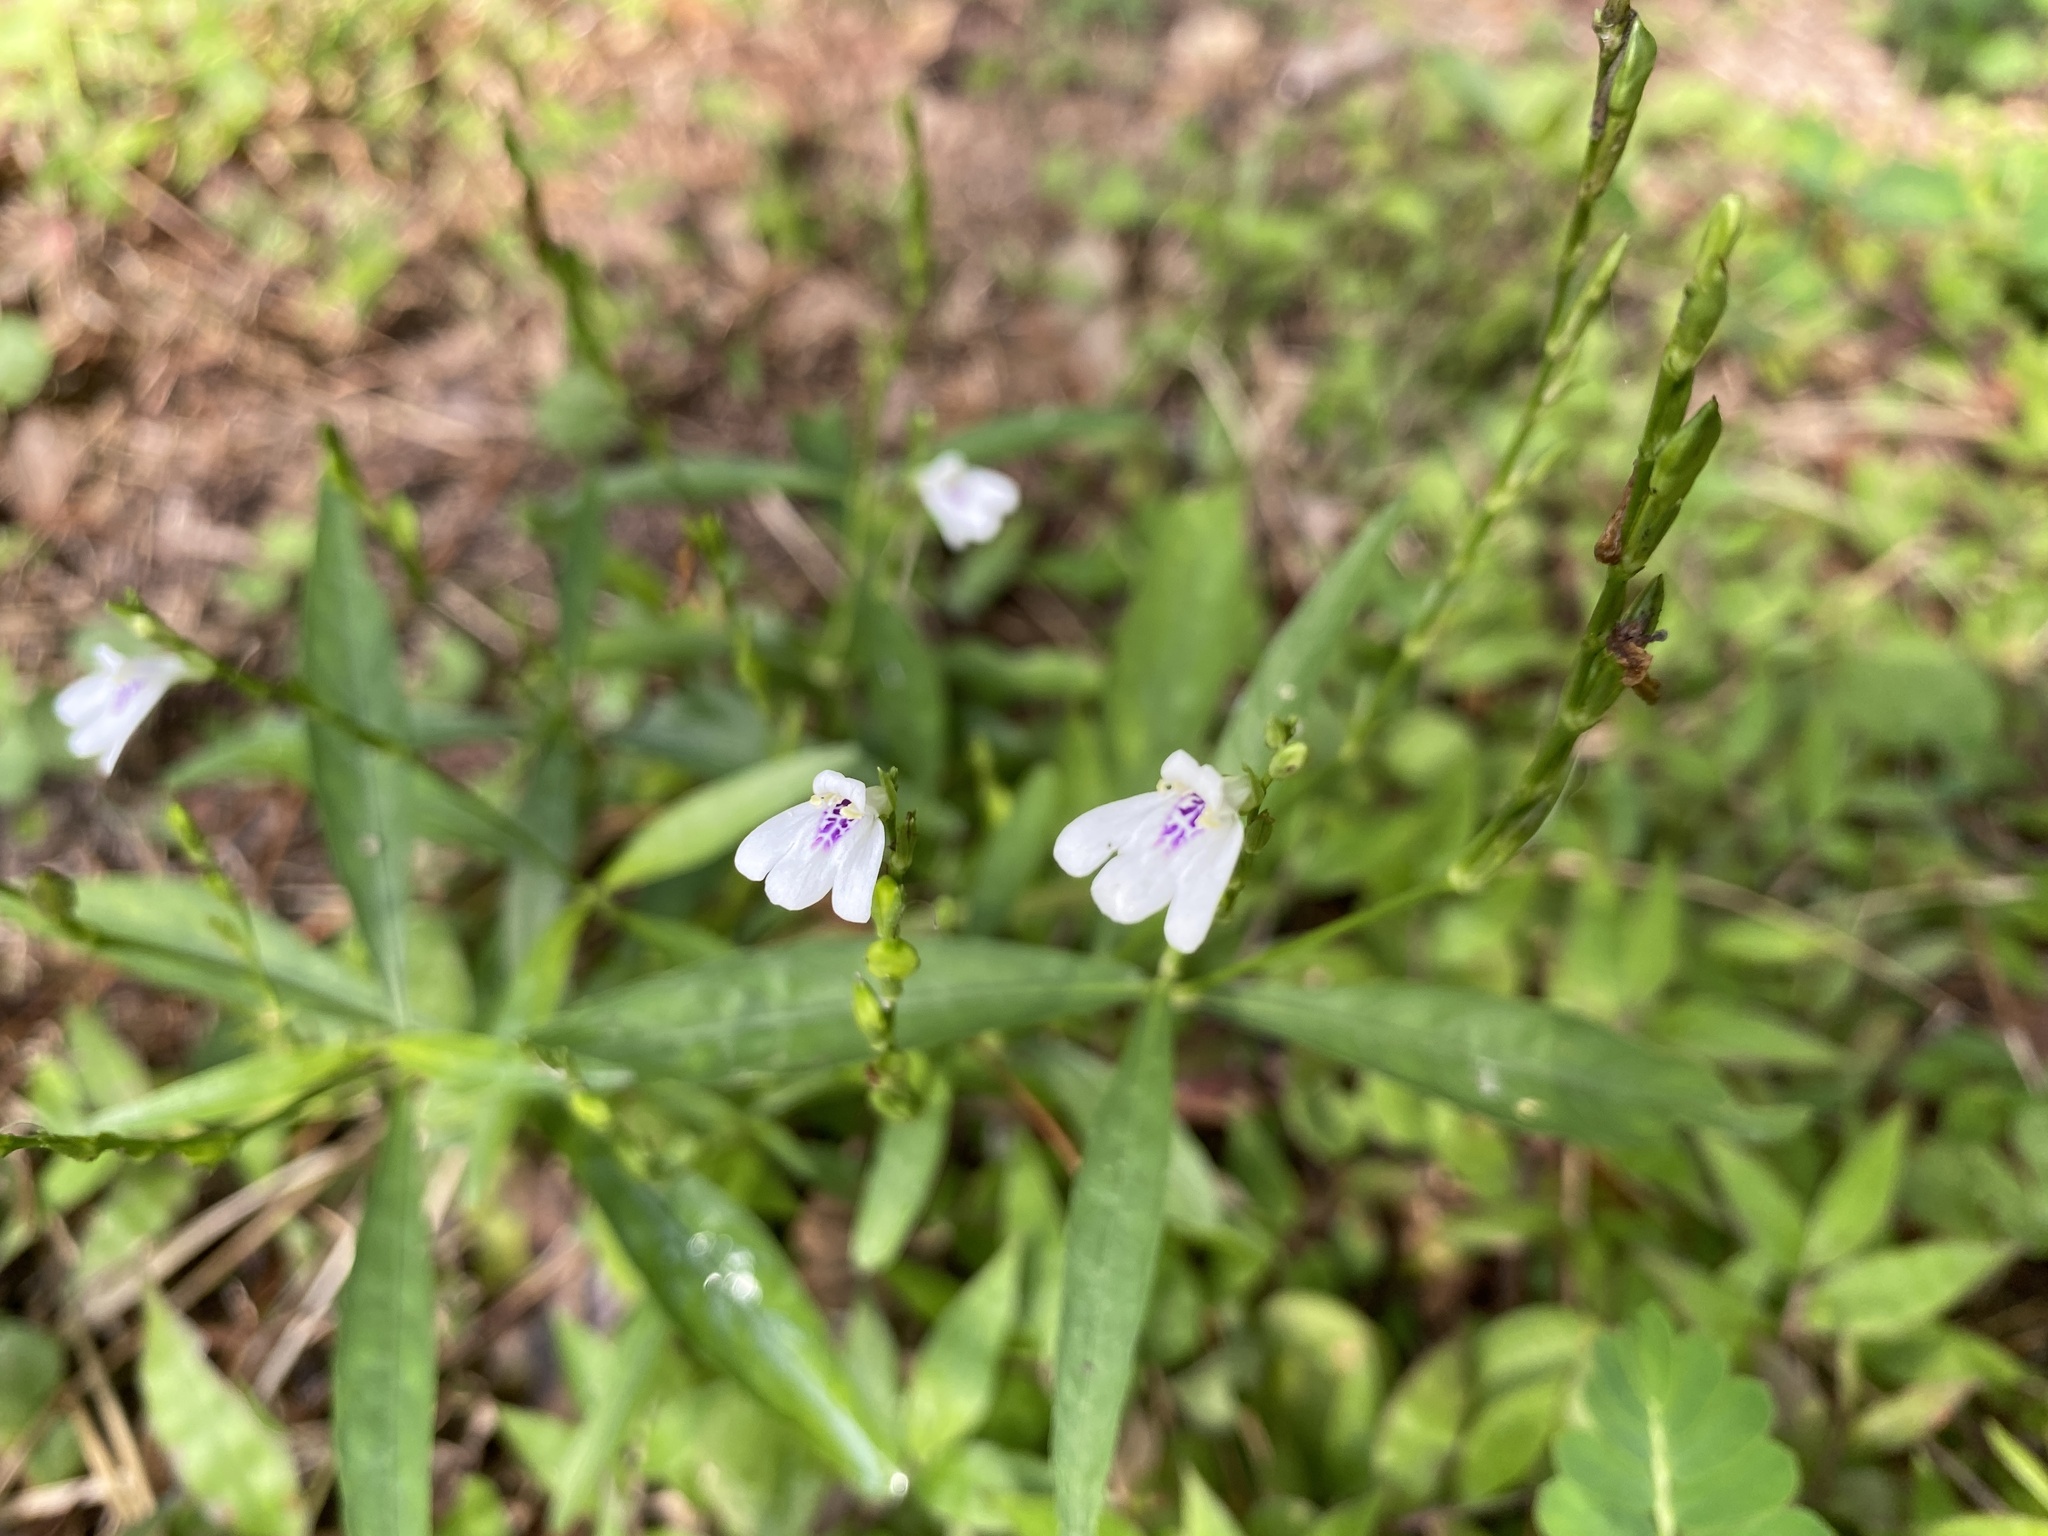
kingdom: Plantae
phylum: Tracheophyta
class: Magnoliopsida
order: Lamiales
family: Acanthaceae
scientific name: Acanthaceae
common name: Acanthaceae
